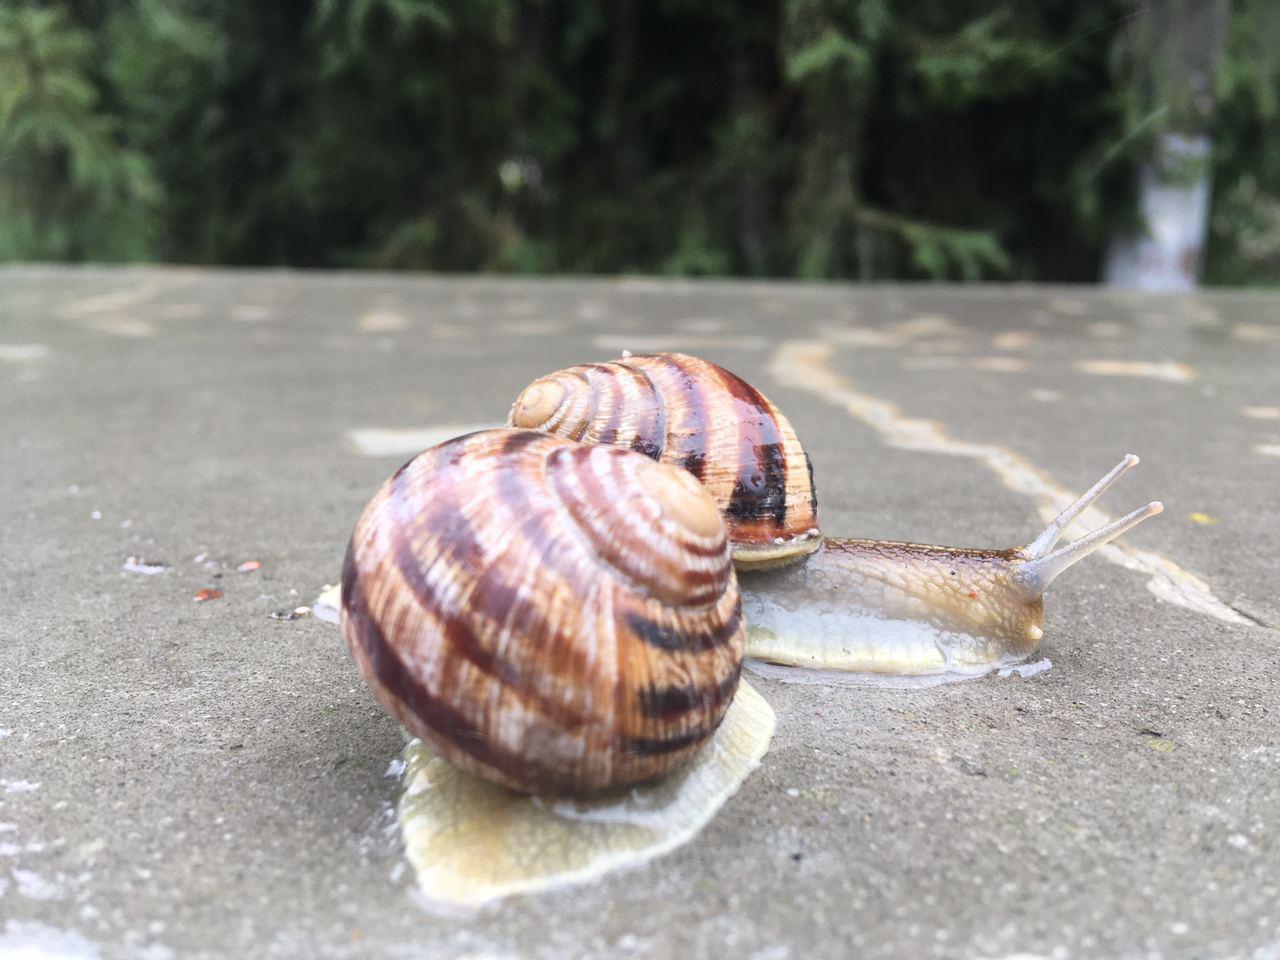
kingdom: Animalia
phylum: Mollusca
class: Gastropoda
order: Stylommatophora
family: Helicidae
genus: Helix
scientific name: Helix albescens
